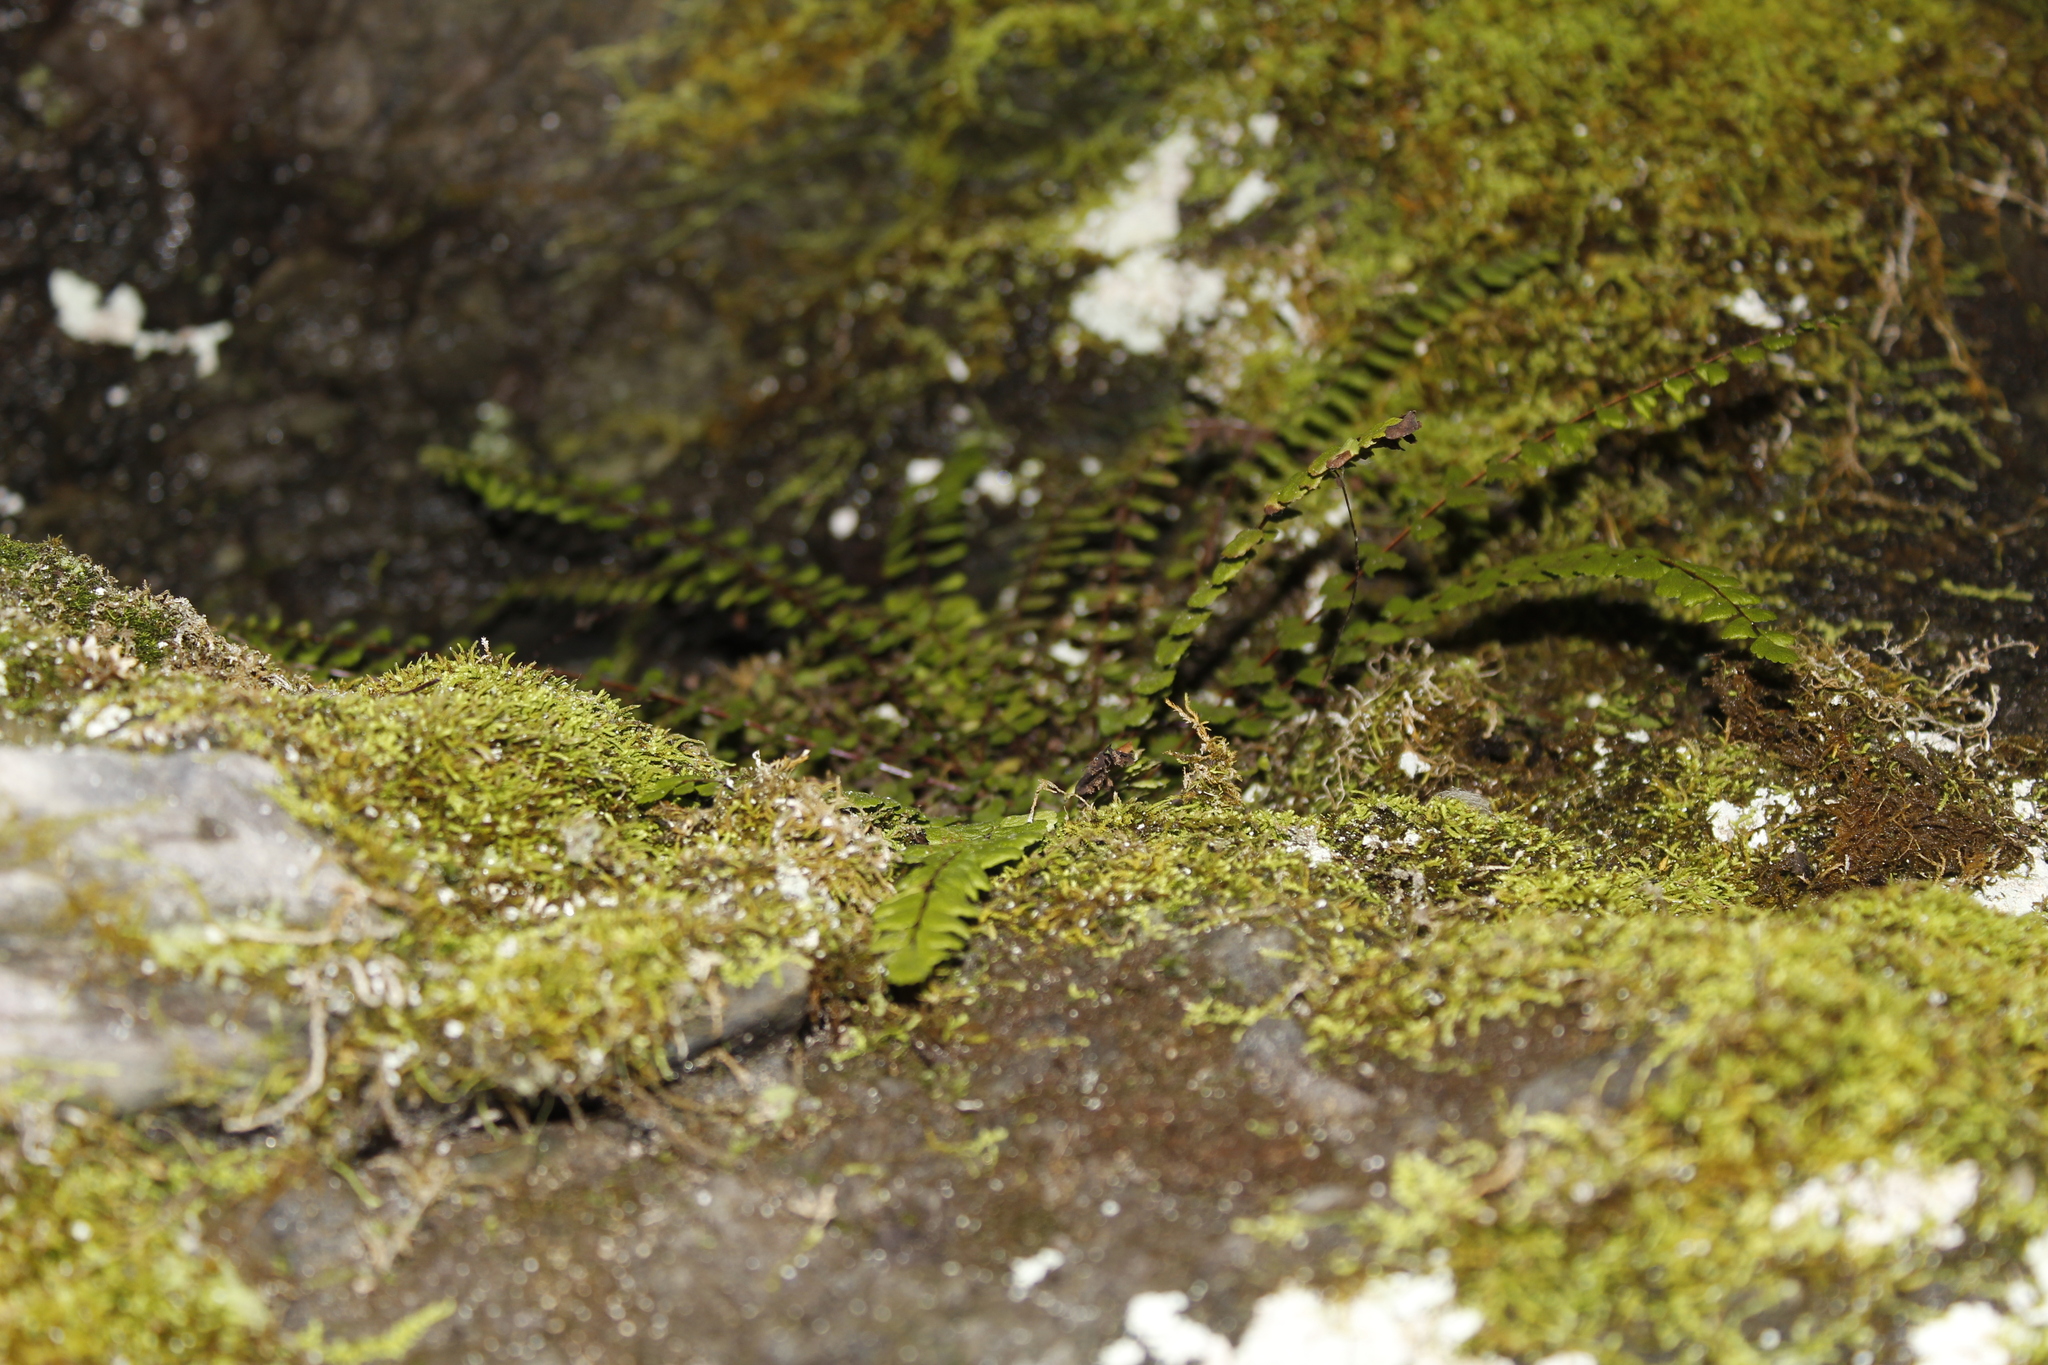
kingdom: Plantae
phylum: Tracheophyta
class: Polypodiopsida
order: Polypodiales
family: Aspleniaceae
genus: Asplenium
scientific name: Asplenium trichomanes
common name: Maidenhair spleenwort
